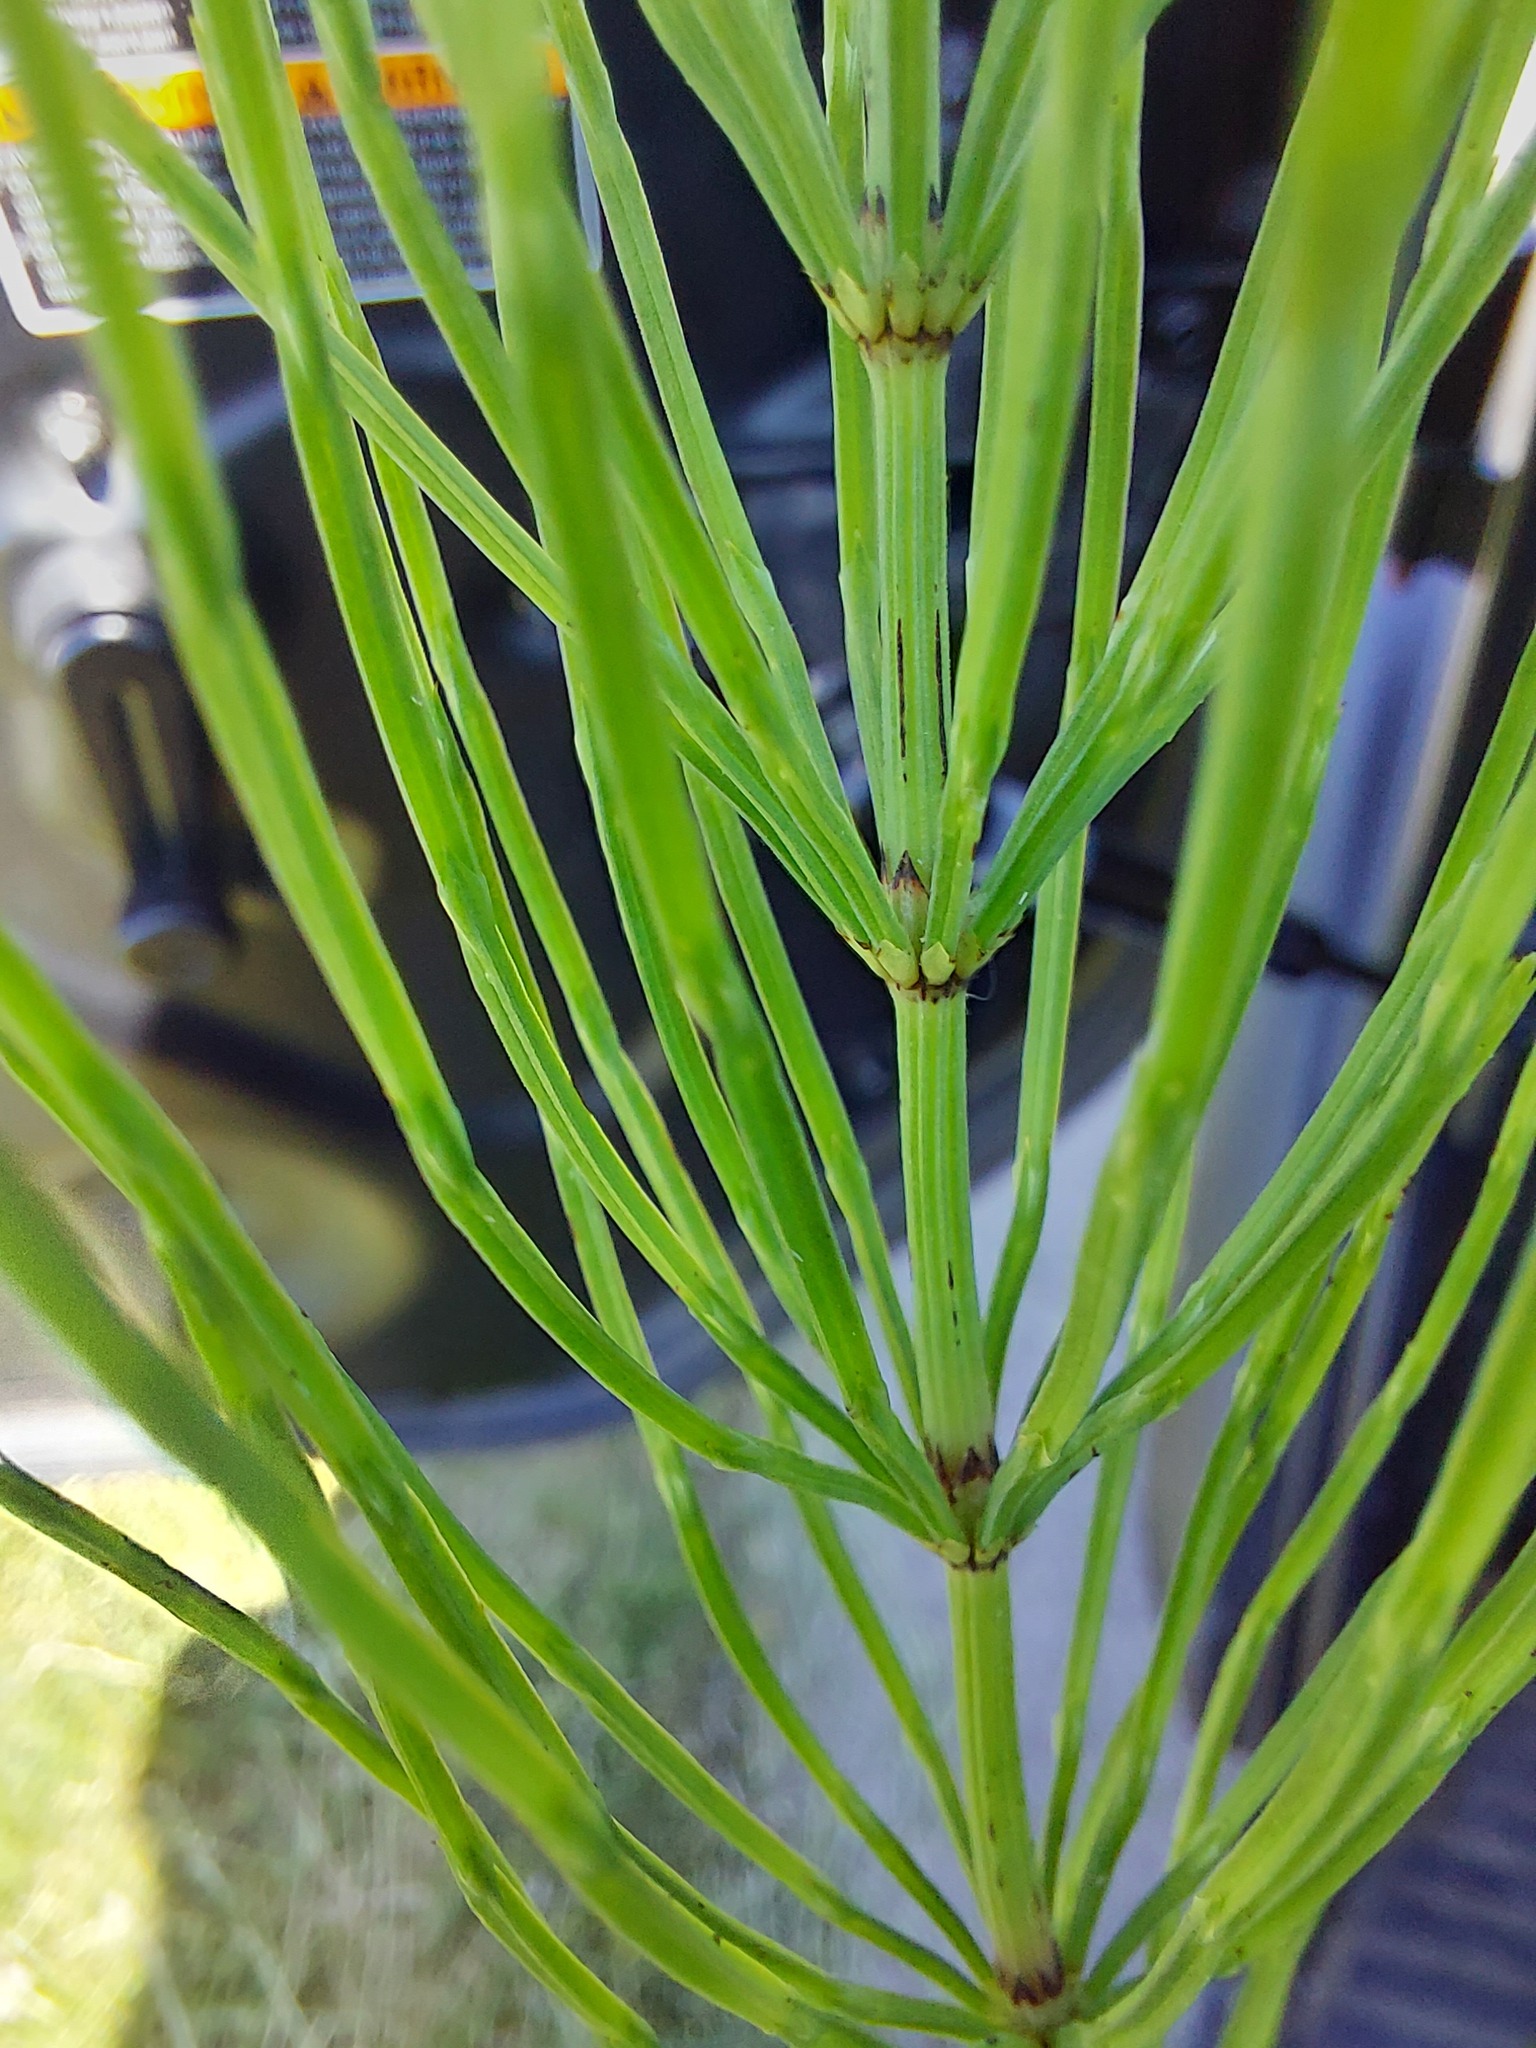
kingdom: Plantae
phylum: Tracheophyta
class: Polypodiopsida
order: Equisetales
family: Equisetaceae
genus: Equisetum
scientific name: Equisetum arvense
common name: Field horsetail
